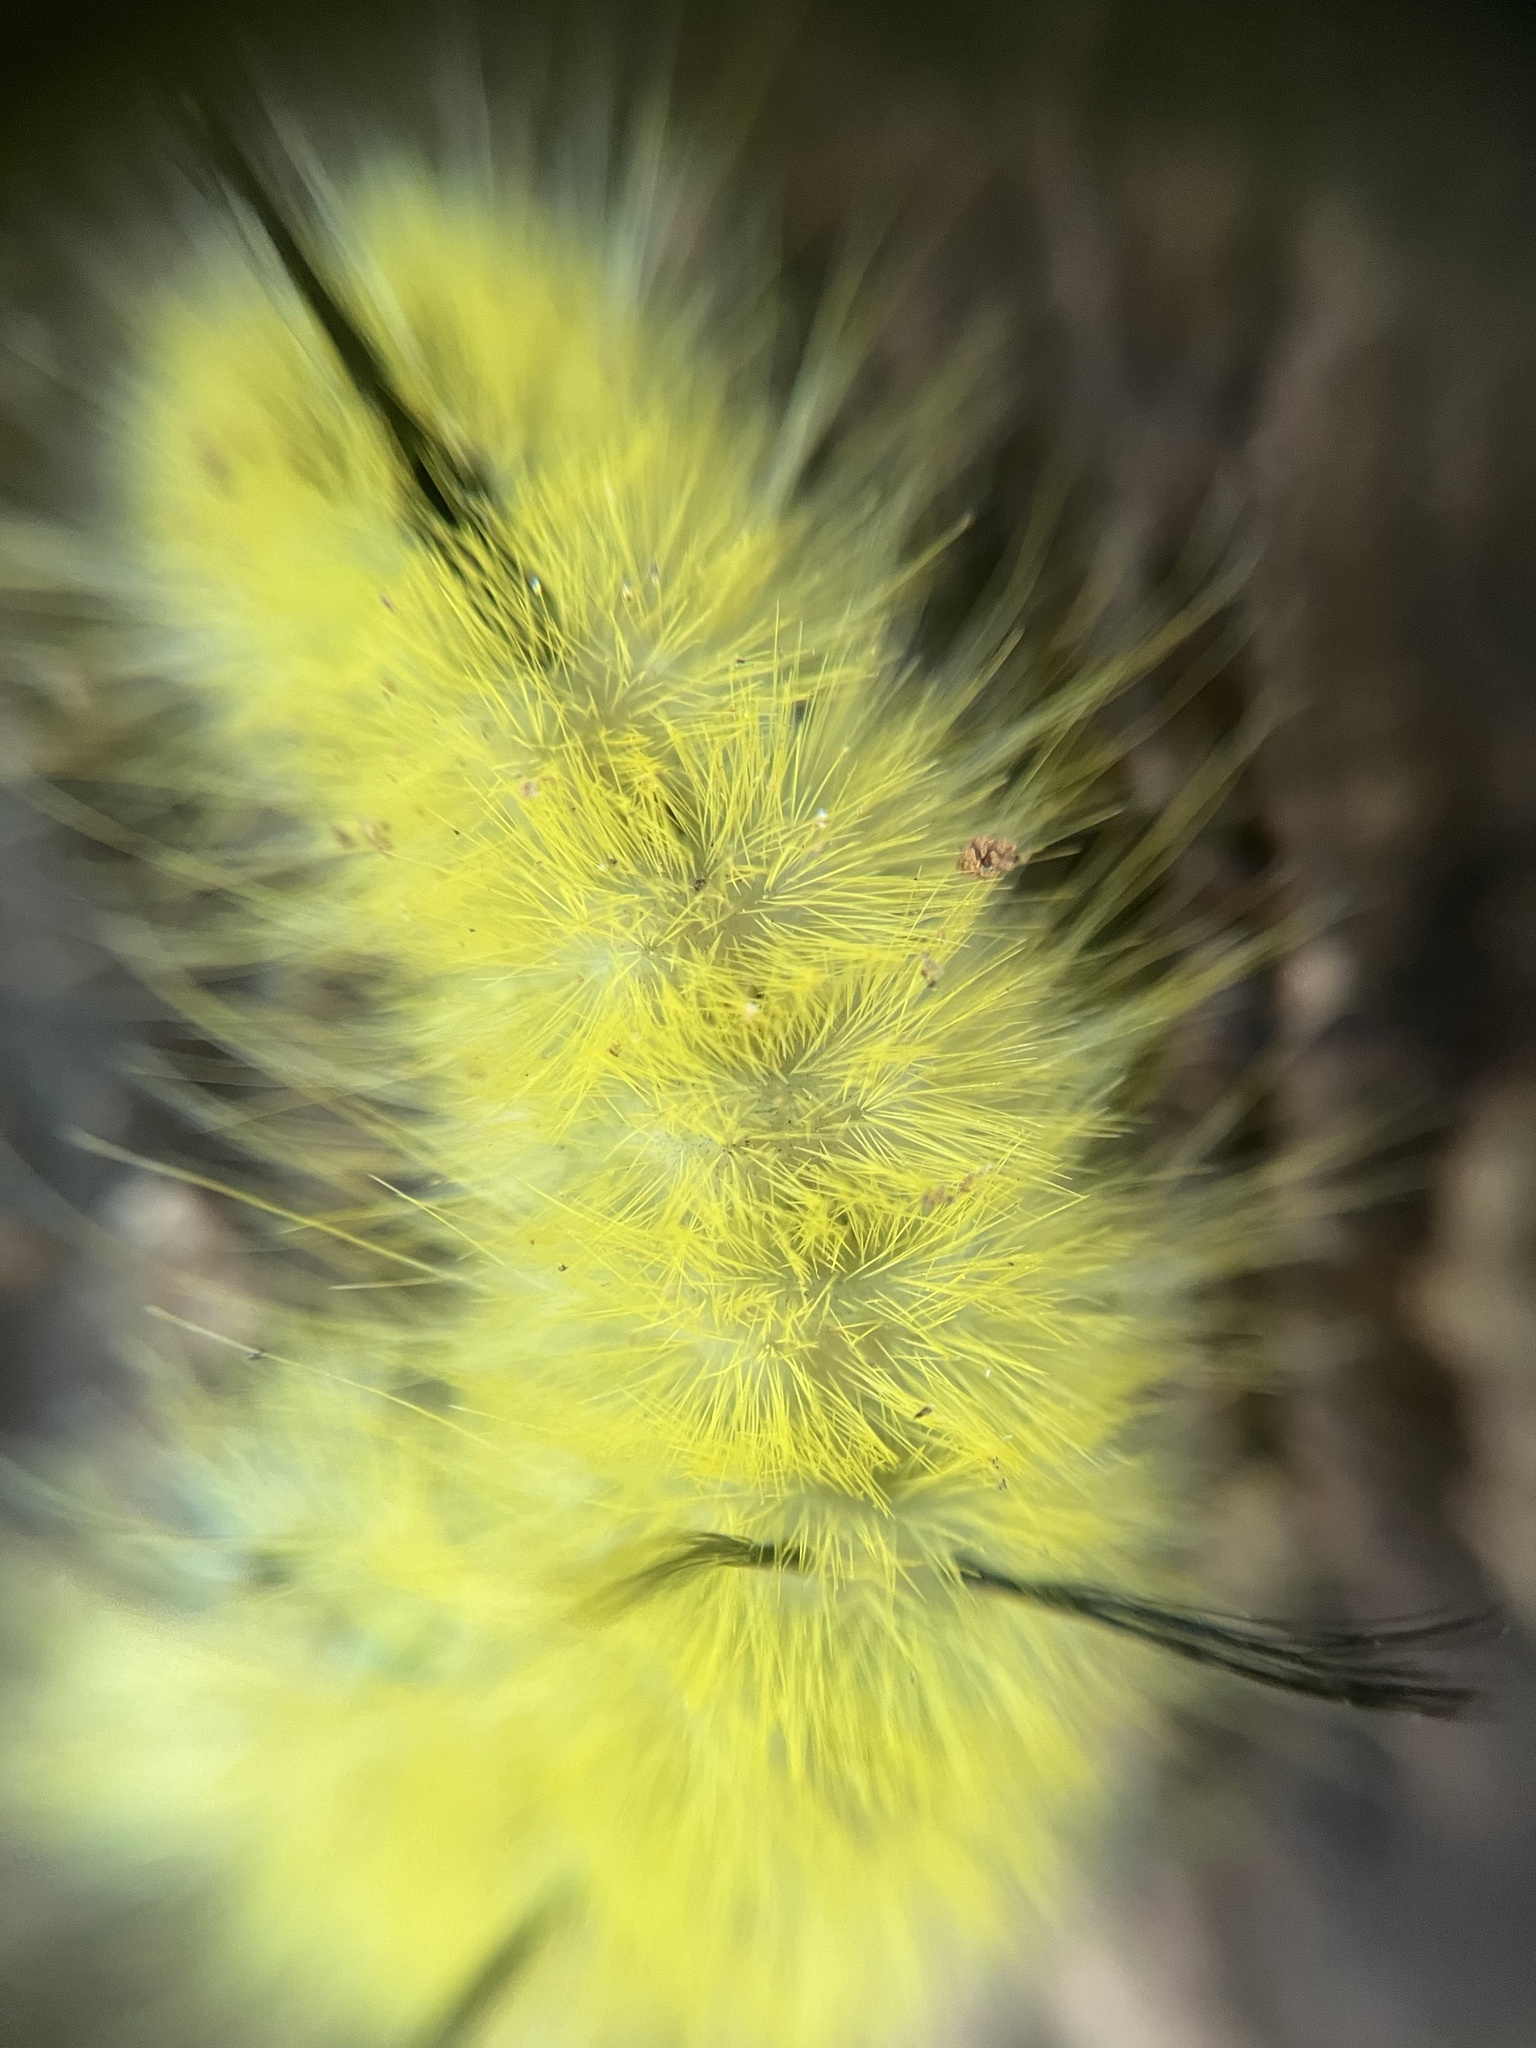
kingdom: Animalia
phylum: Arthropoda
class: Insecta
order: Lepidoptera
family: Noctuidae
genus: Acronicta
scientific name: Acronicta americana
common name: American dagger
